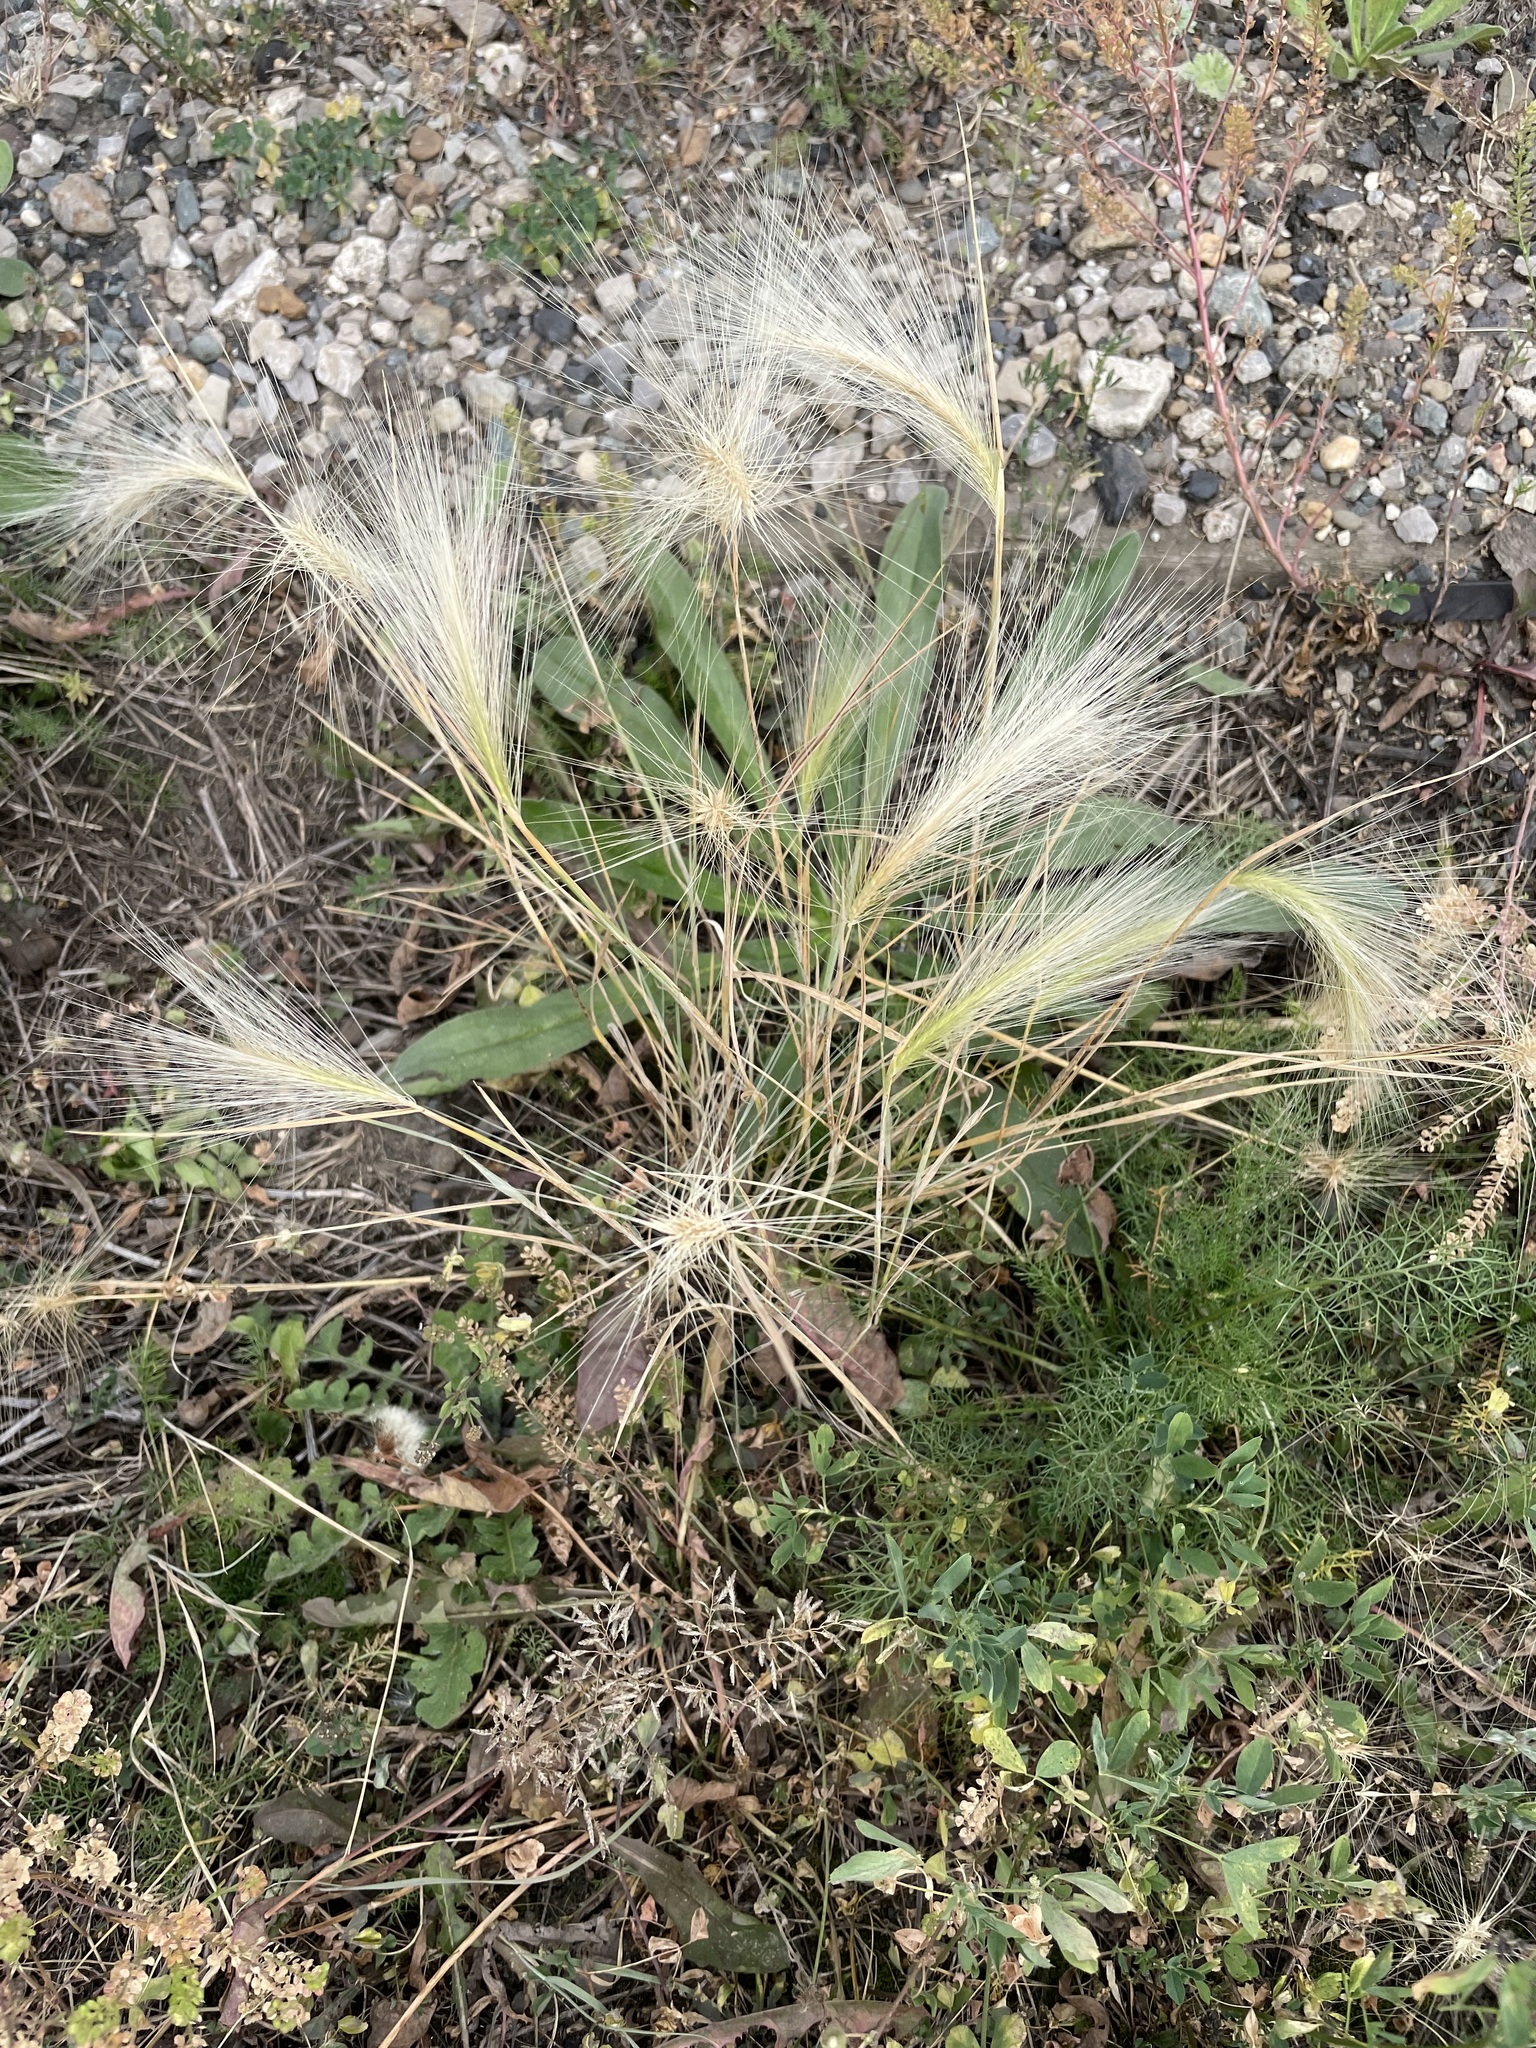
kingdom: Plantae
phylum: Tracheophyta
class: Liliopsida
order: Poales
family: Poaceae
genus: Hordeum
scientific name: Hordeum jubatum
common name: Foxtail barley
